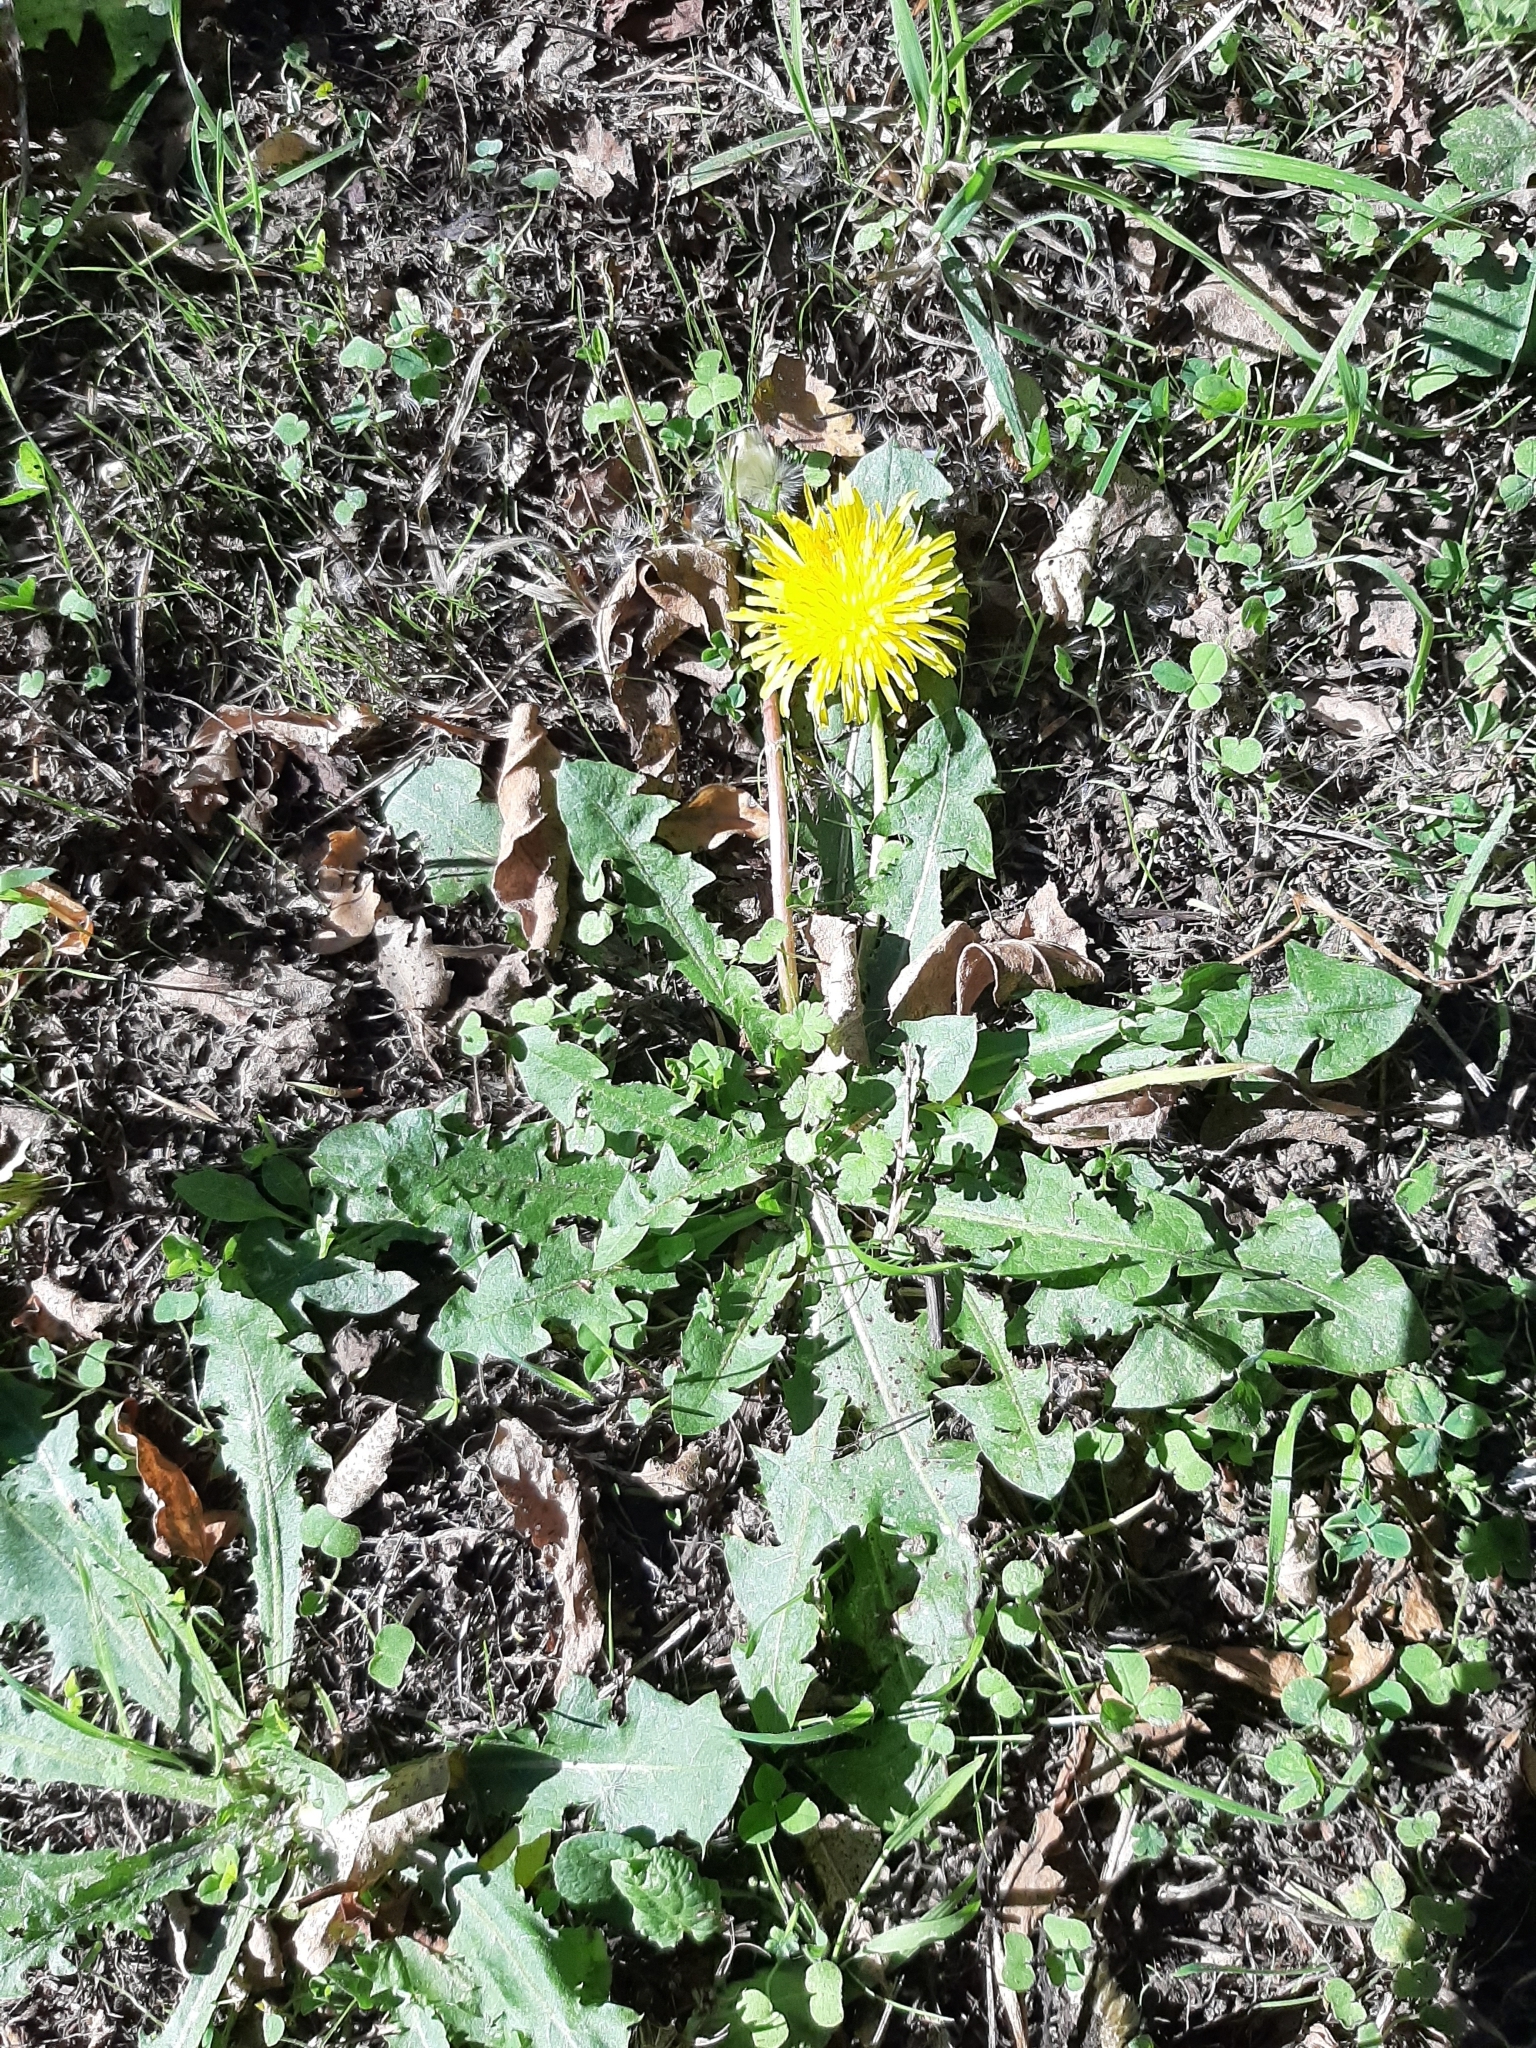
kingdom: Plantae
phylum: Tracheophyta
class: Magnoliopsida
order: Asterales
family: Asteraceae
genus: Taraxacum
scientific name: Taraxacum officinale
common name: Common dandelion
